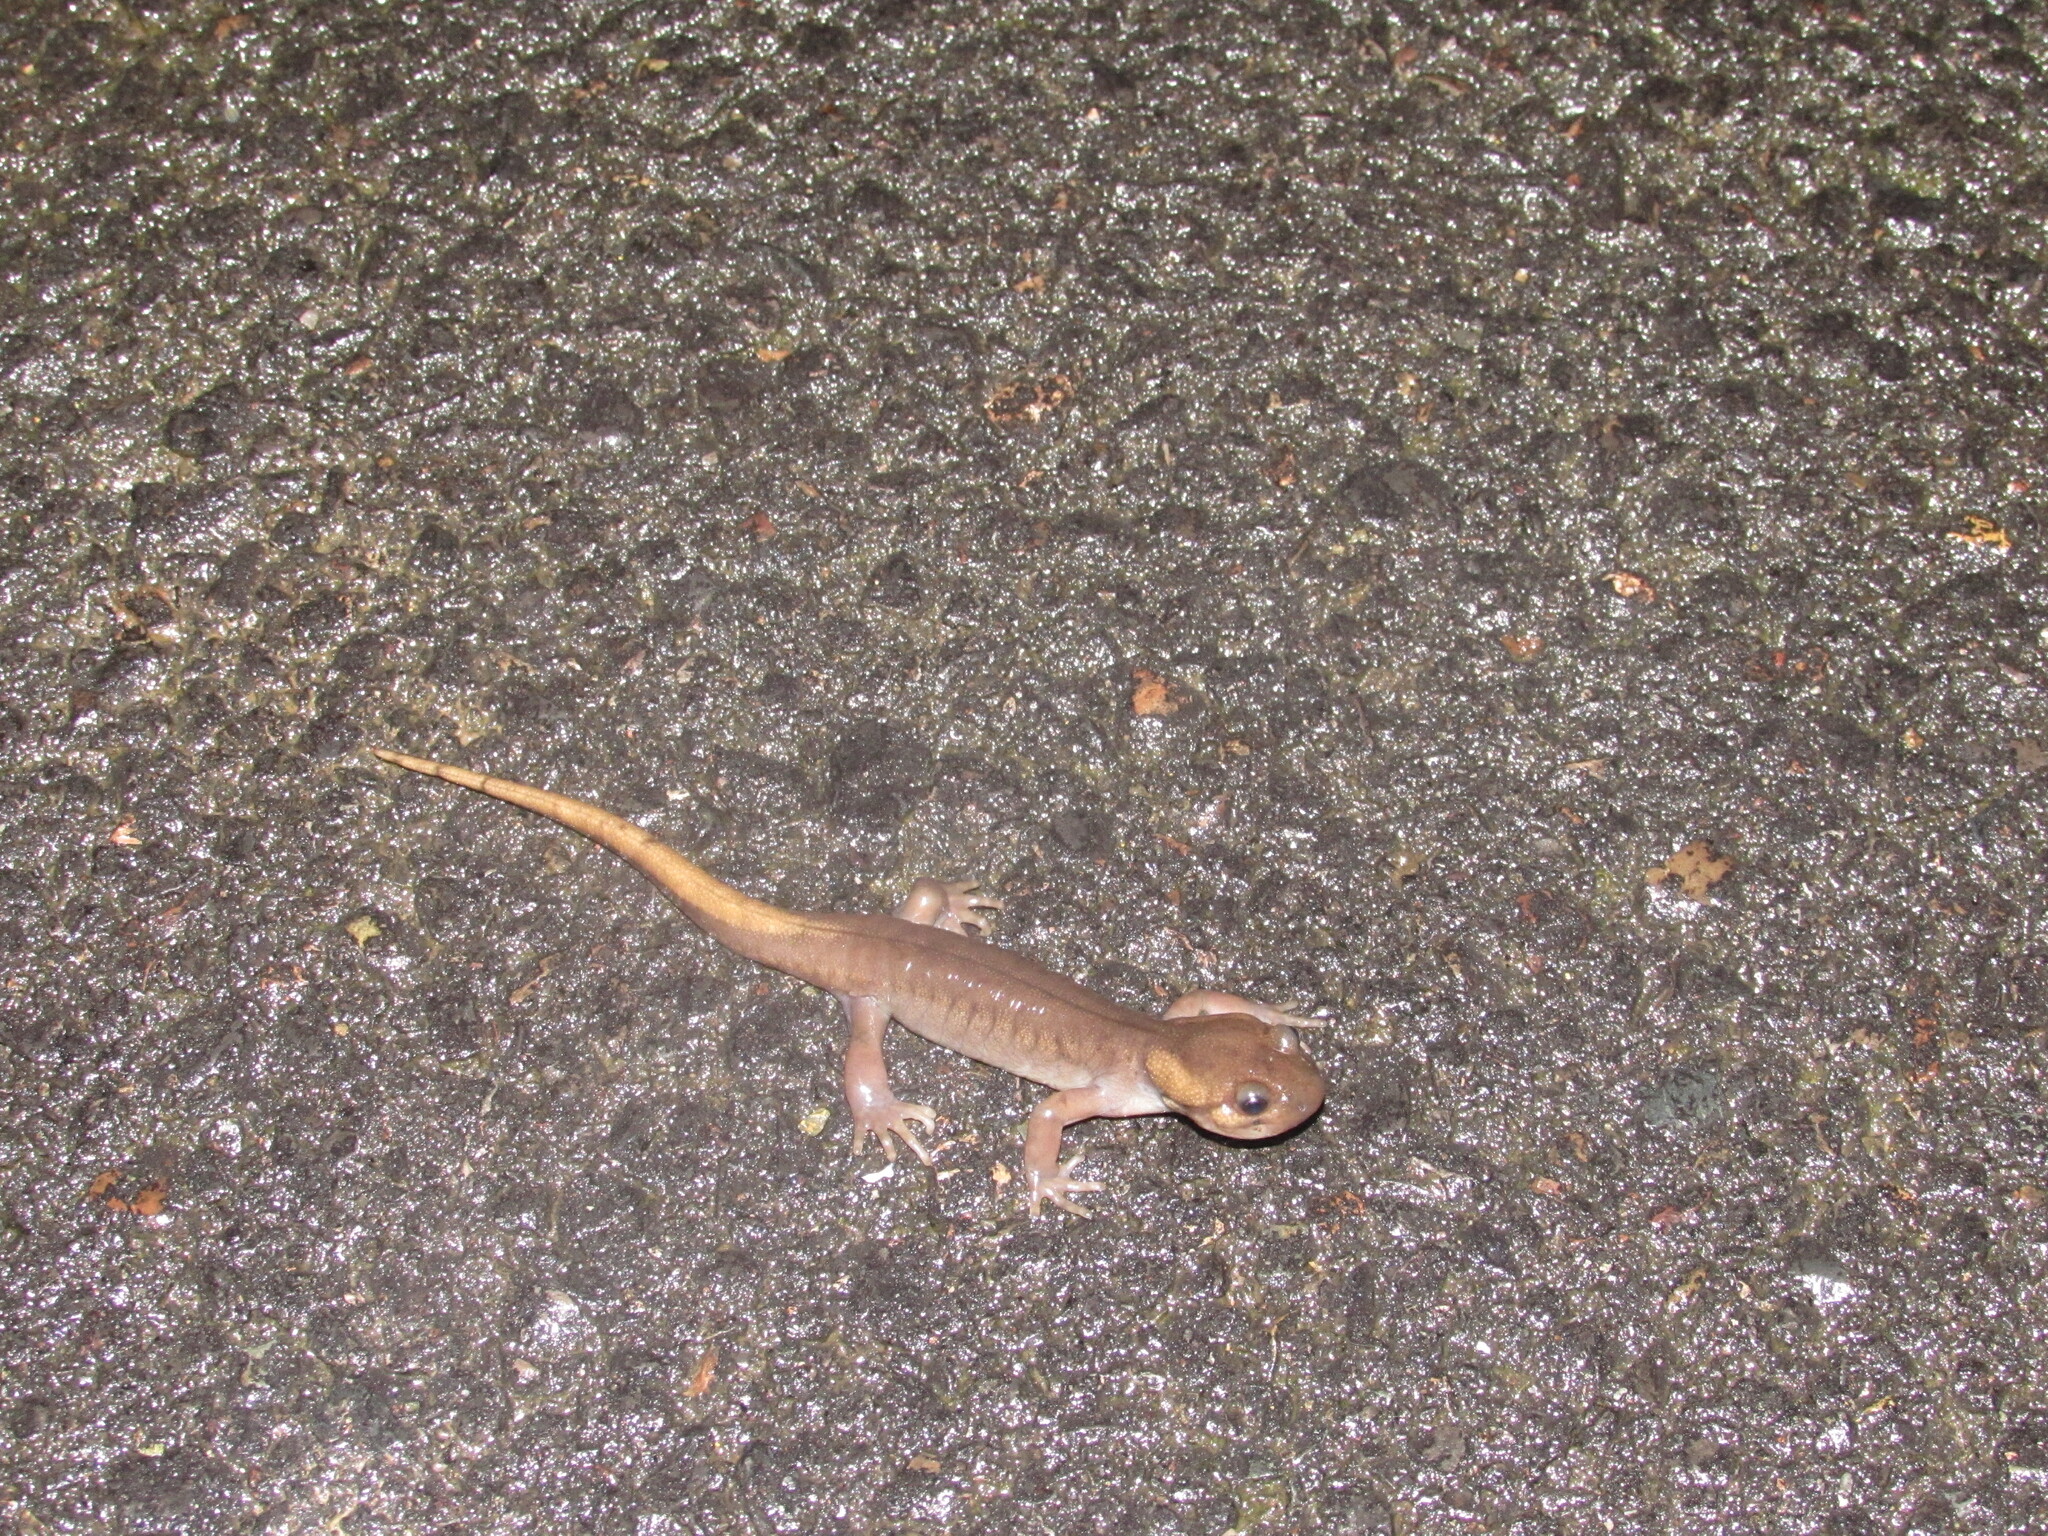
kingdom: Animalia
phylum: Chordata
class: Amphibia
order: Caudata
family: Ambystomatidae
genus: Ambystoma
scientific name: Ambystoma gracile
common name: Northwestern salamander
